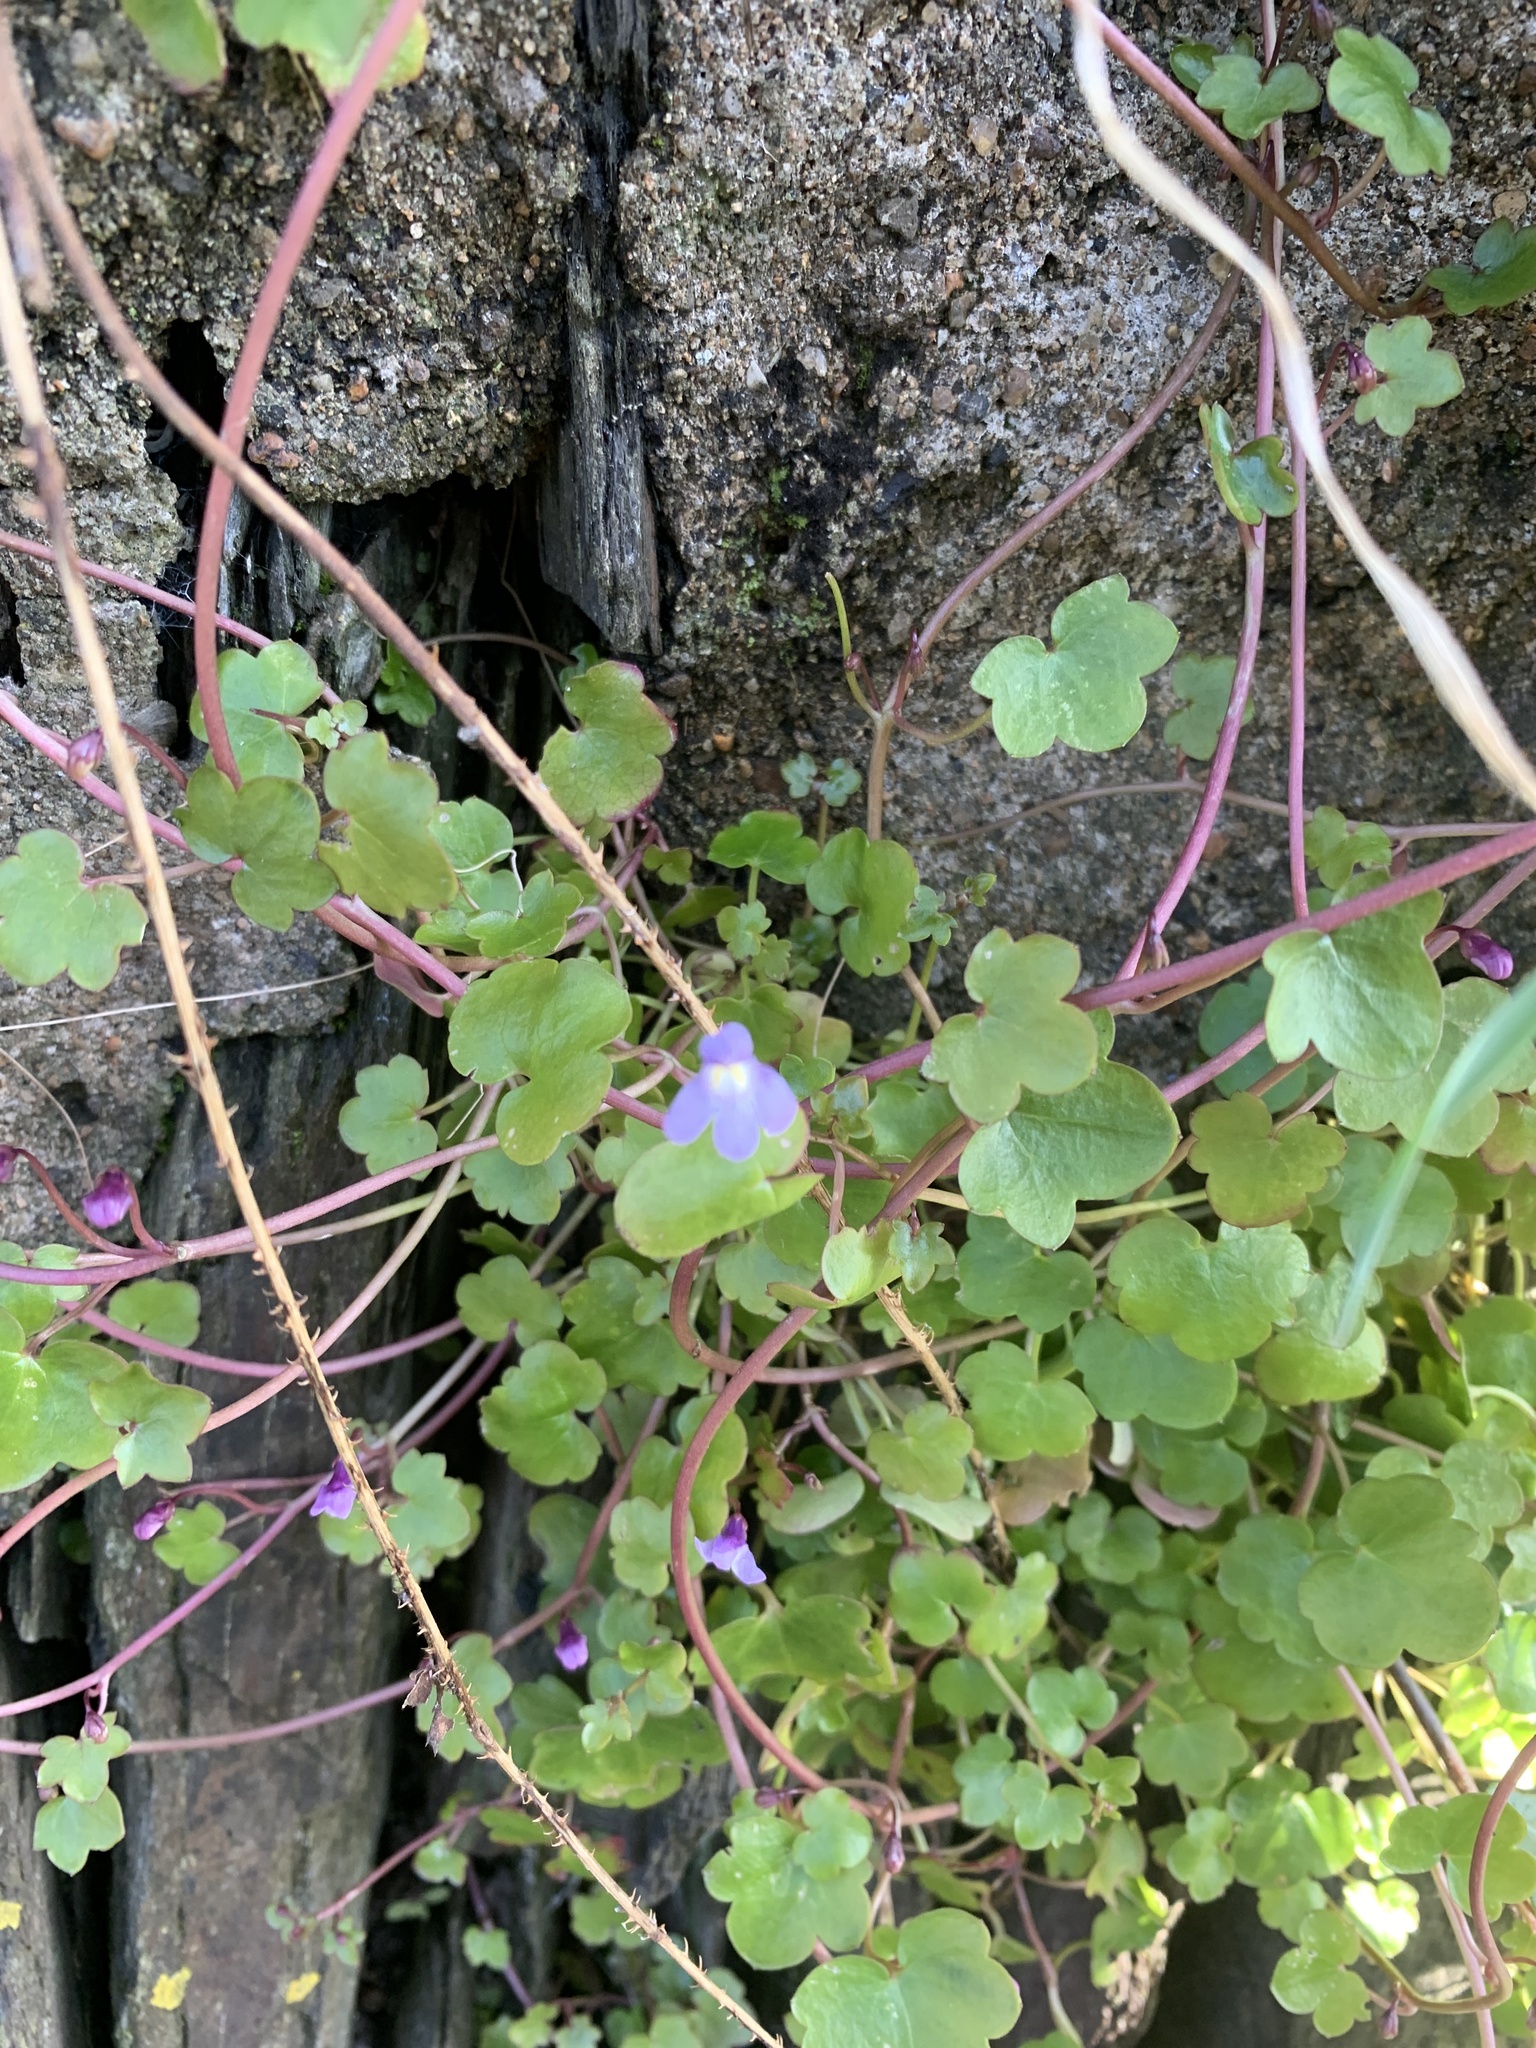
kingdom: Plantae
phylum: Tracheophyta
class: Magnoliopsida
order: Lamiales
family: Plantaginaceae
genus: Cymbalaria
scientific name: Cymbalaria muralis
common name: Ivy-leaved toadflax
